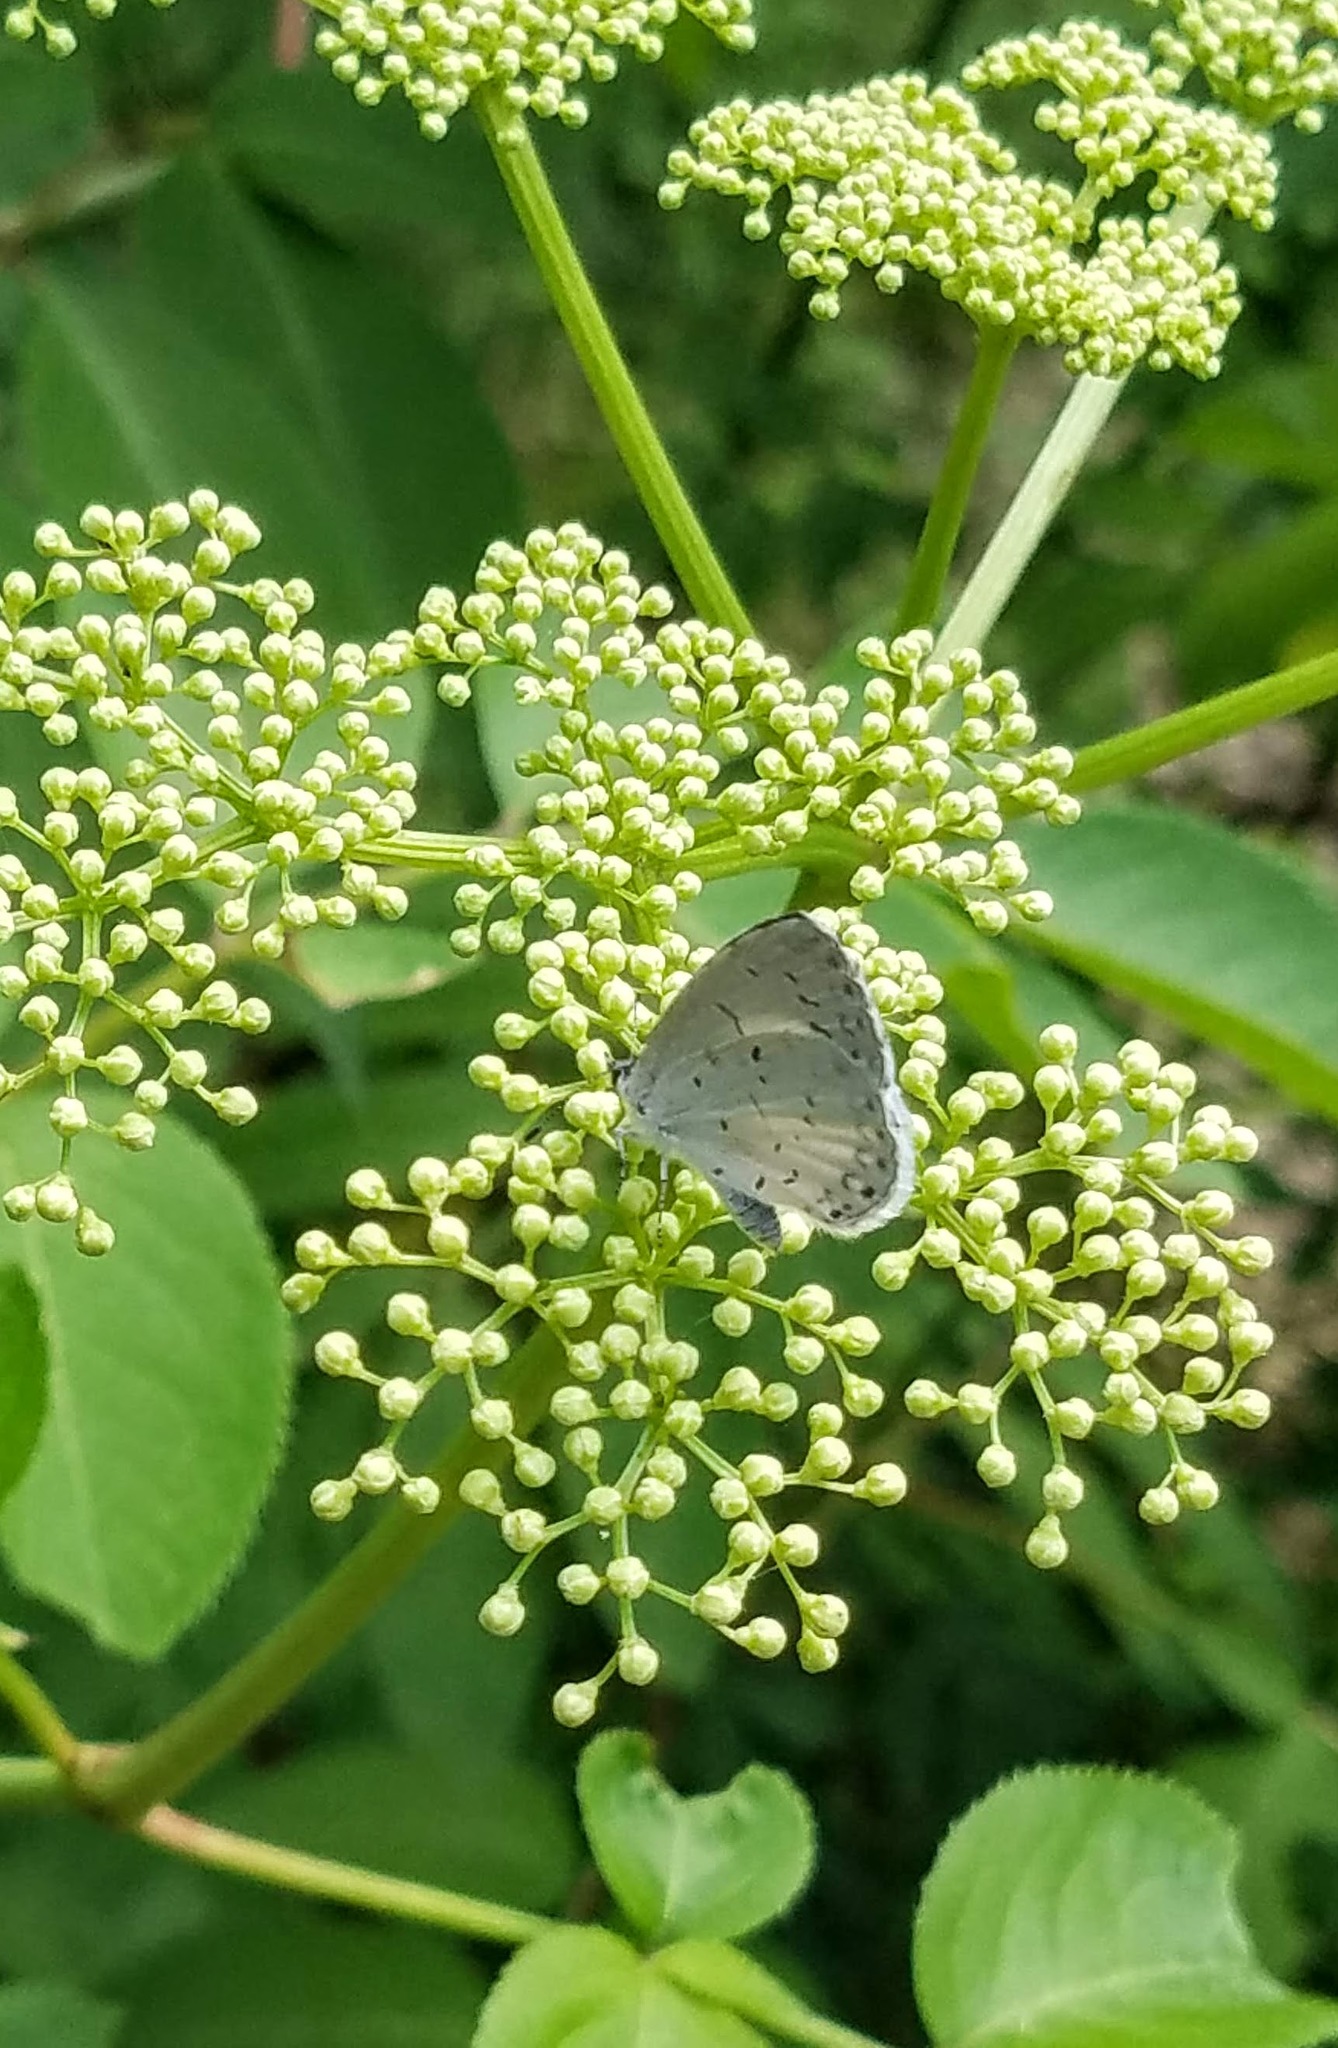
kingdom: Animalia
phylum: Arthropoda
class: Insecta
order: Lepidoptera
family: Lycaenidae
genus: Cyaniris
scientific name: Cyaniris neglecta
